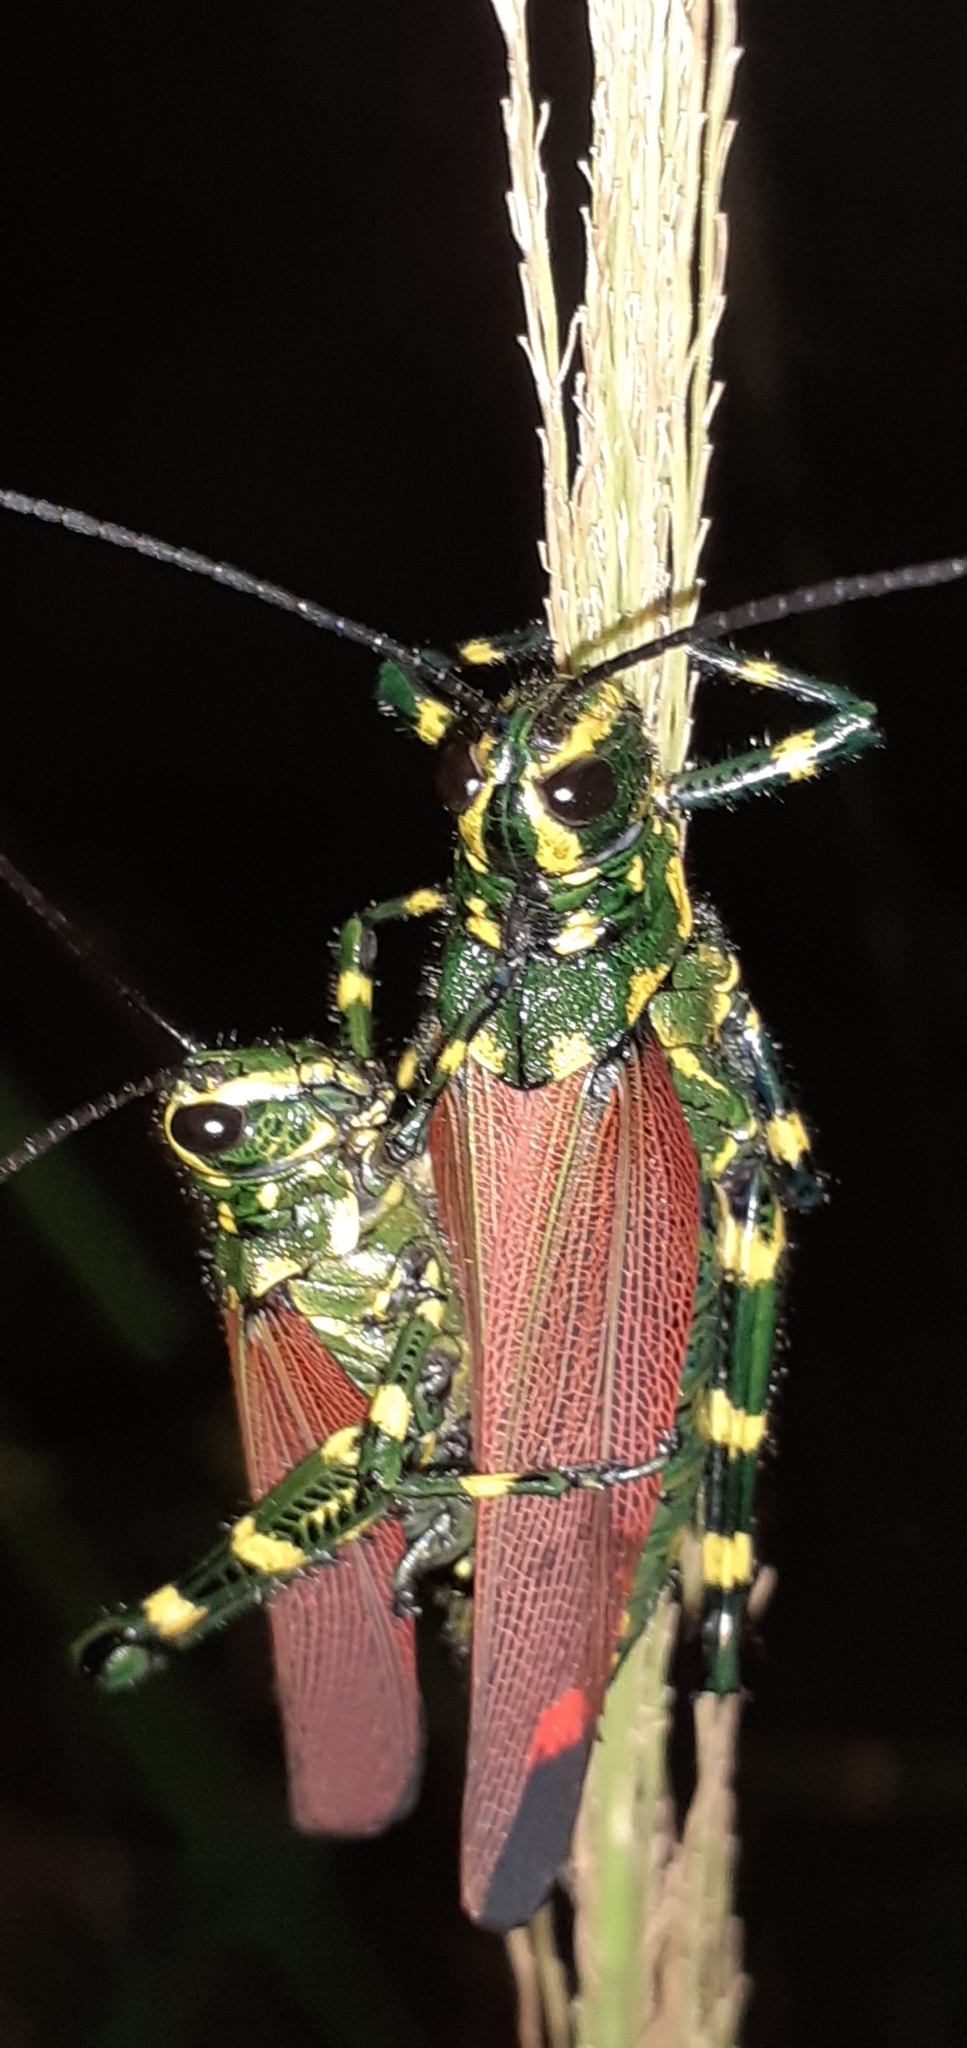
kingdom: Animalia
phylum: Arthropoda
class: Insecta
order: Orthoptera
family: Romaleidae
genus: Chromacris
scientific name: Chromacris speciosa
